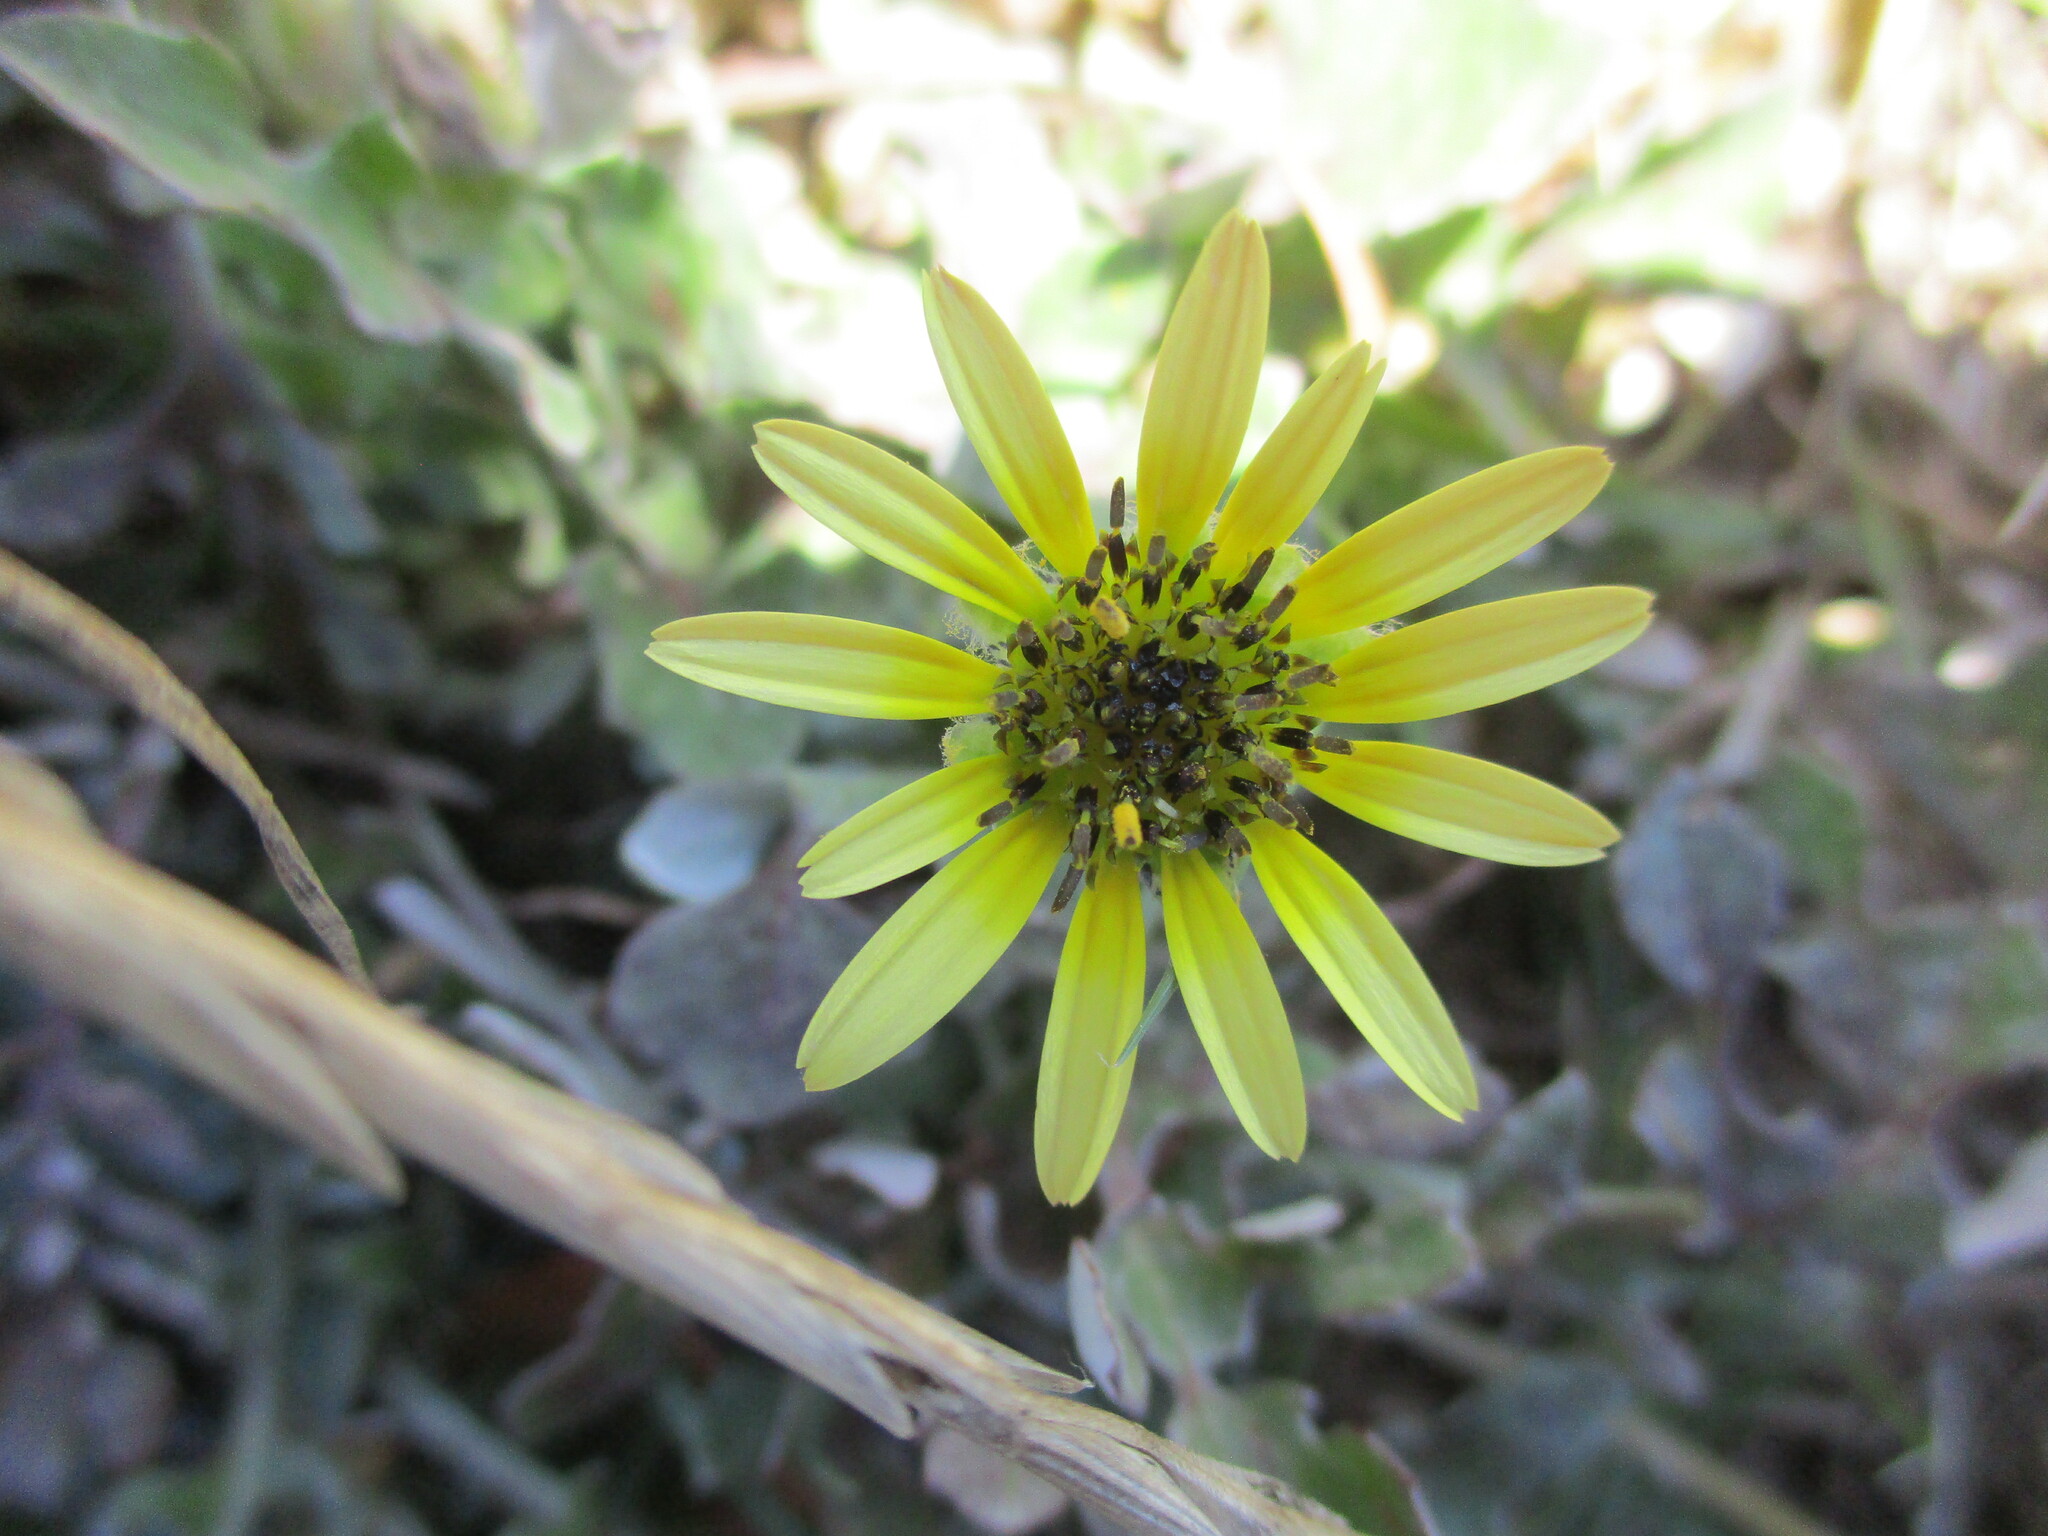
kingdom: Plantae
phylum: Tracheophyta
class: Magnoliopsida
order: Asterales
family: Asteraceae
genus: Arctotheca
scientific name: Arctotheca calendula
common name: Capeweed
